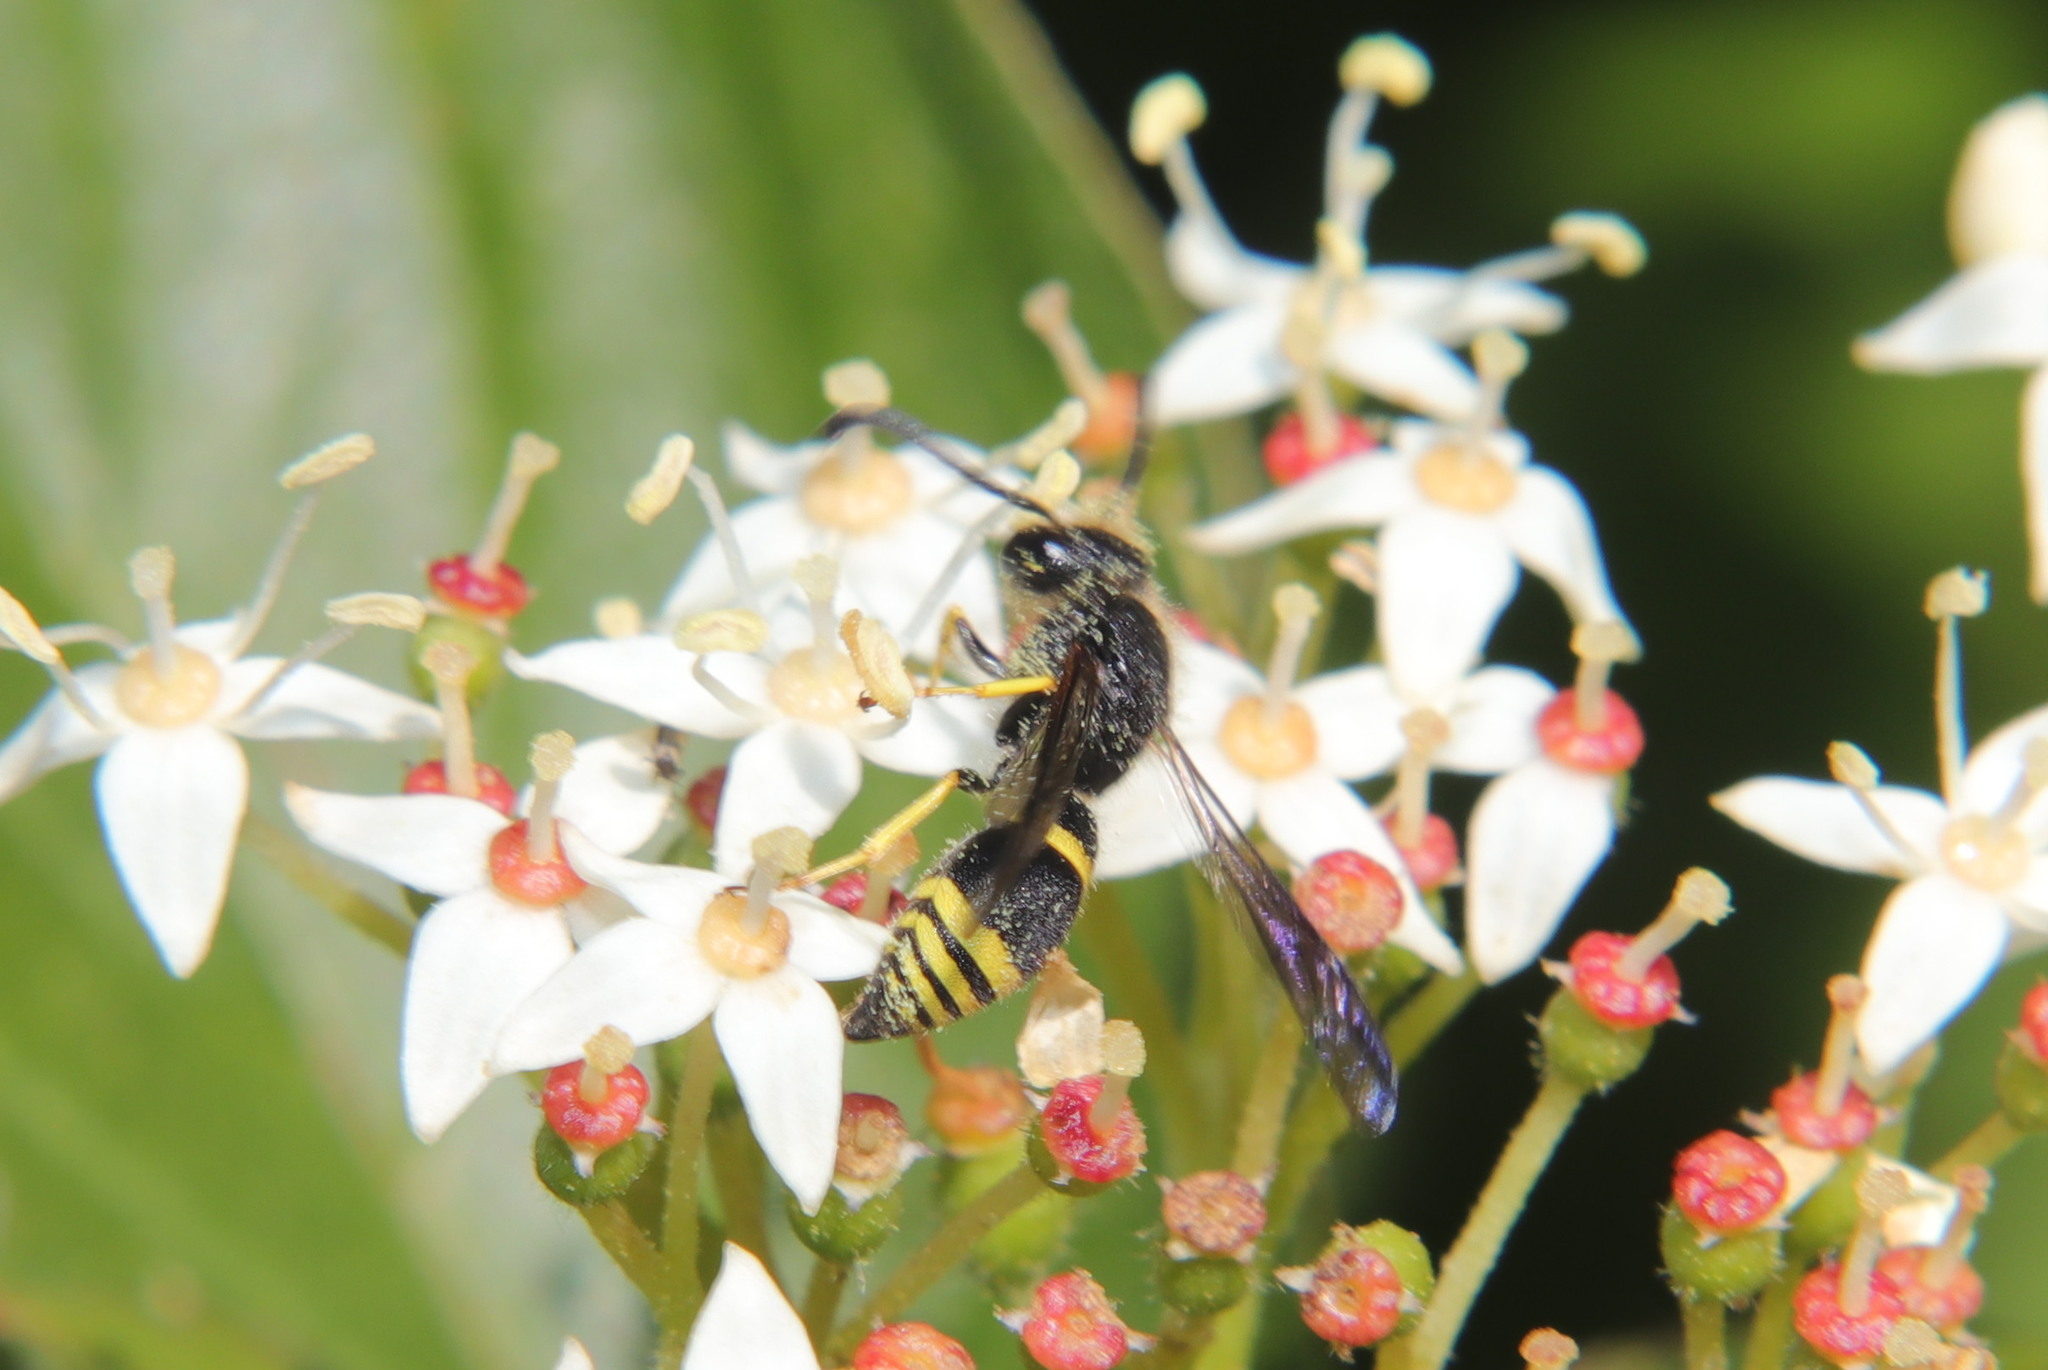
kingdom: Animalia
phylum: Arthropoda
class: Insecta
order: Hymenoptera
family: Vespidae
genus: Ancistrocerus
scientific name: Ancistrocerus gazella
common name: European tube wasp
